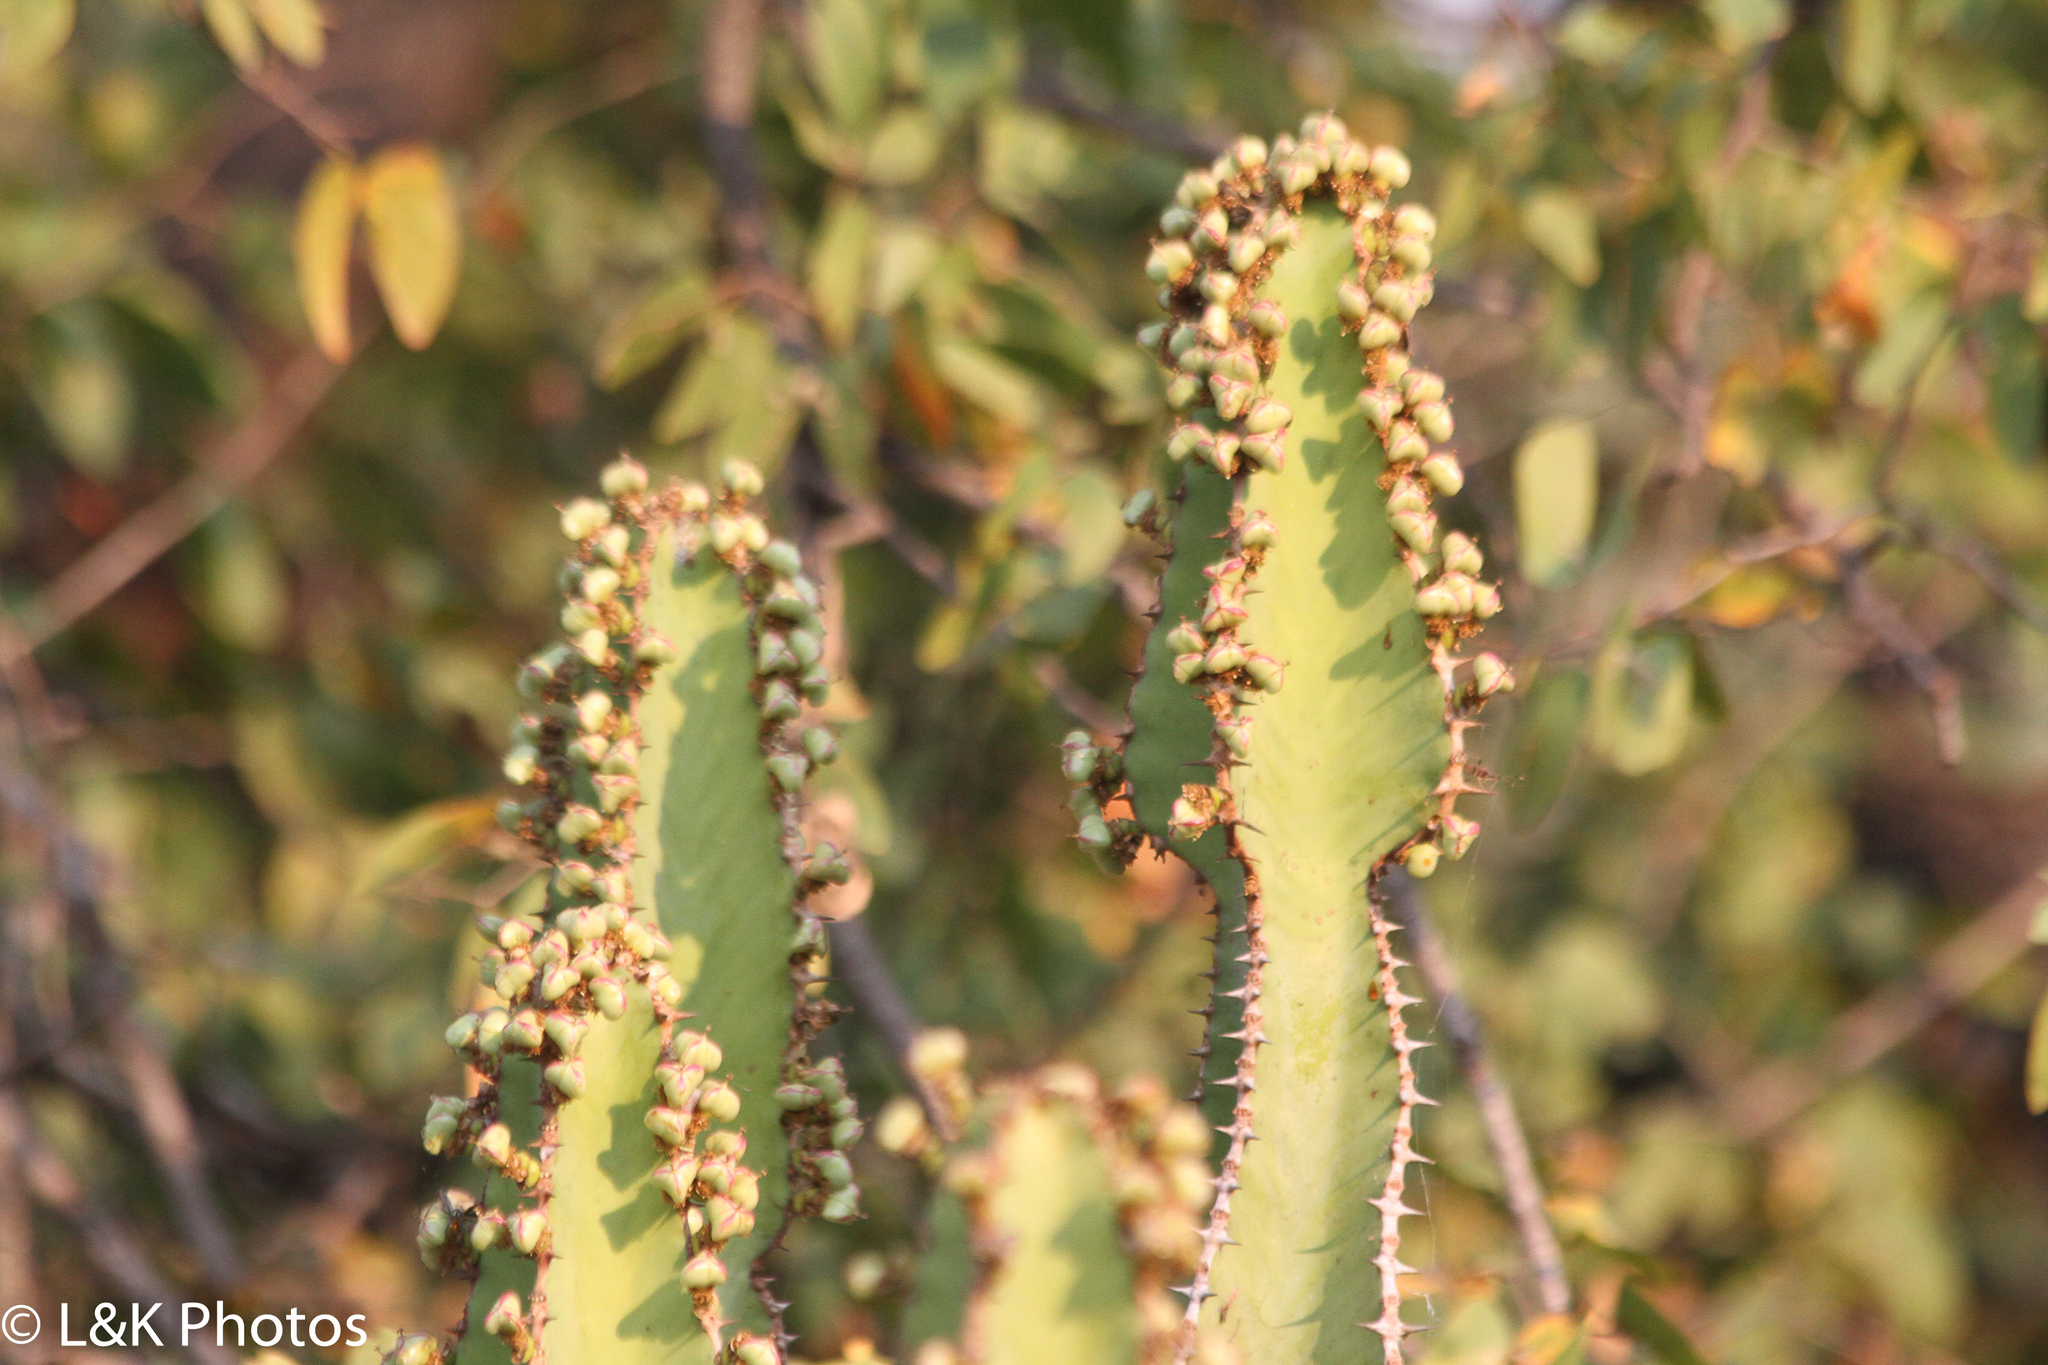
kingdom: Plantae
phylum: Tracheophyta
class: Magnoliopsida
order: Malpighiales
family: Euphorbiaceae
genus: Euphorbia
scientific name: Euphorbia cooperi
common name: Candelabra tree
